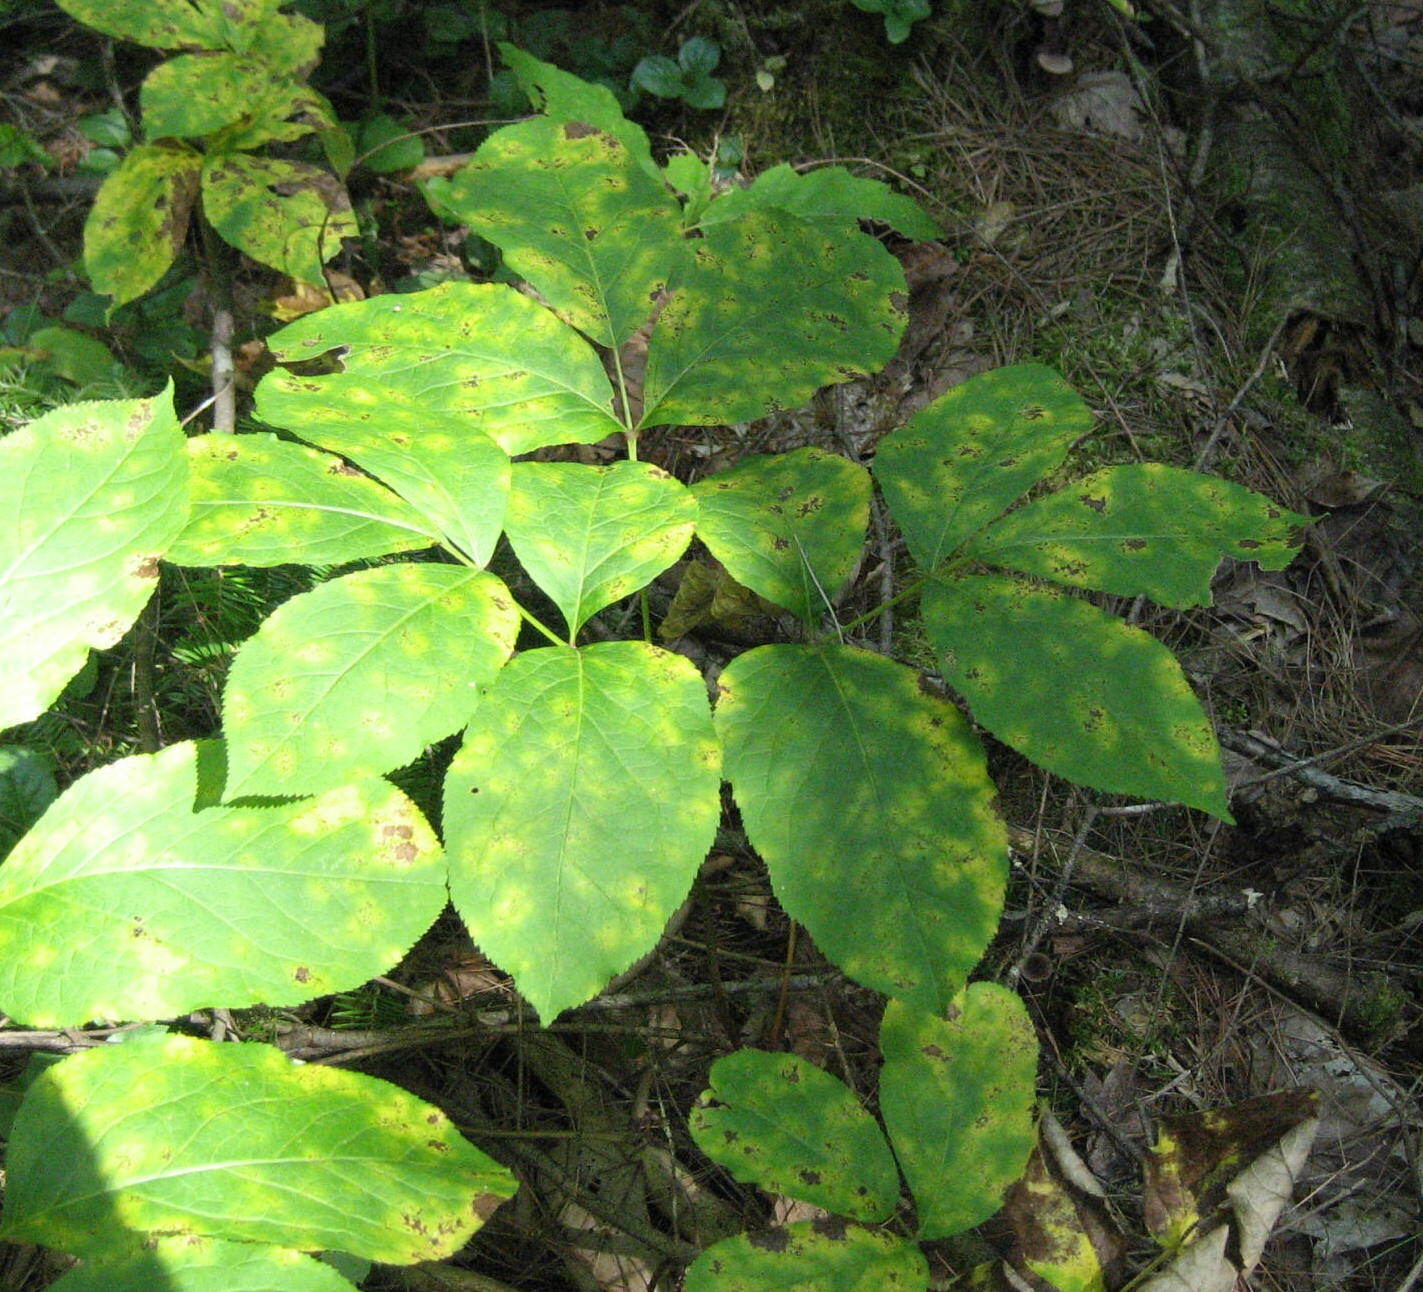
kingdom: Plantae
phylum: Tracheophyta
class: Magnoliopsida
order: Apiales
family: Araliaceae
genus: Aralia
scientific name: Aralia nudicaulis
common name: Wild sarsaparilla
